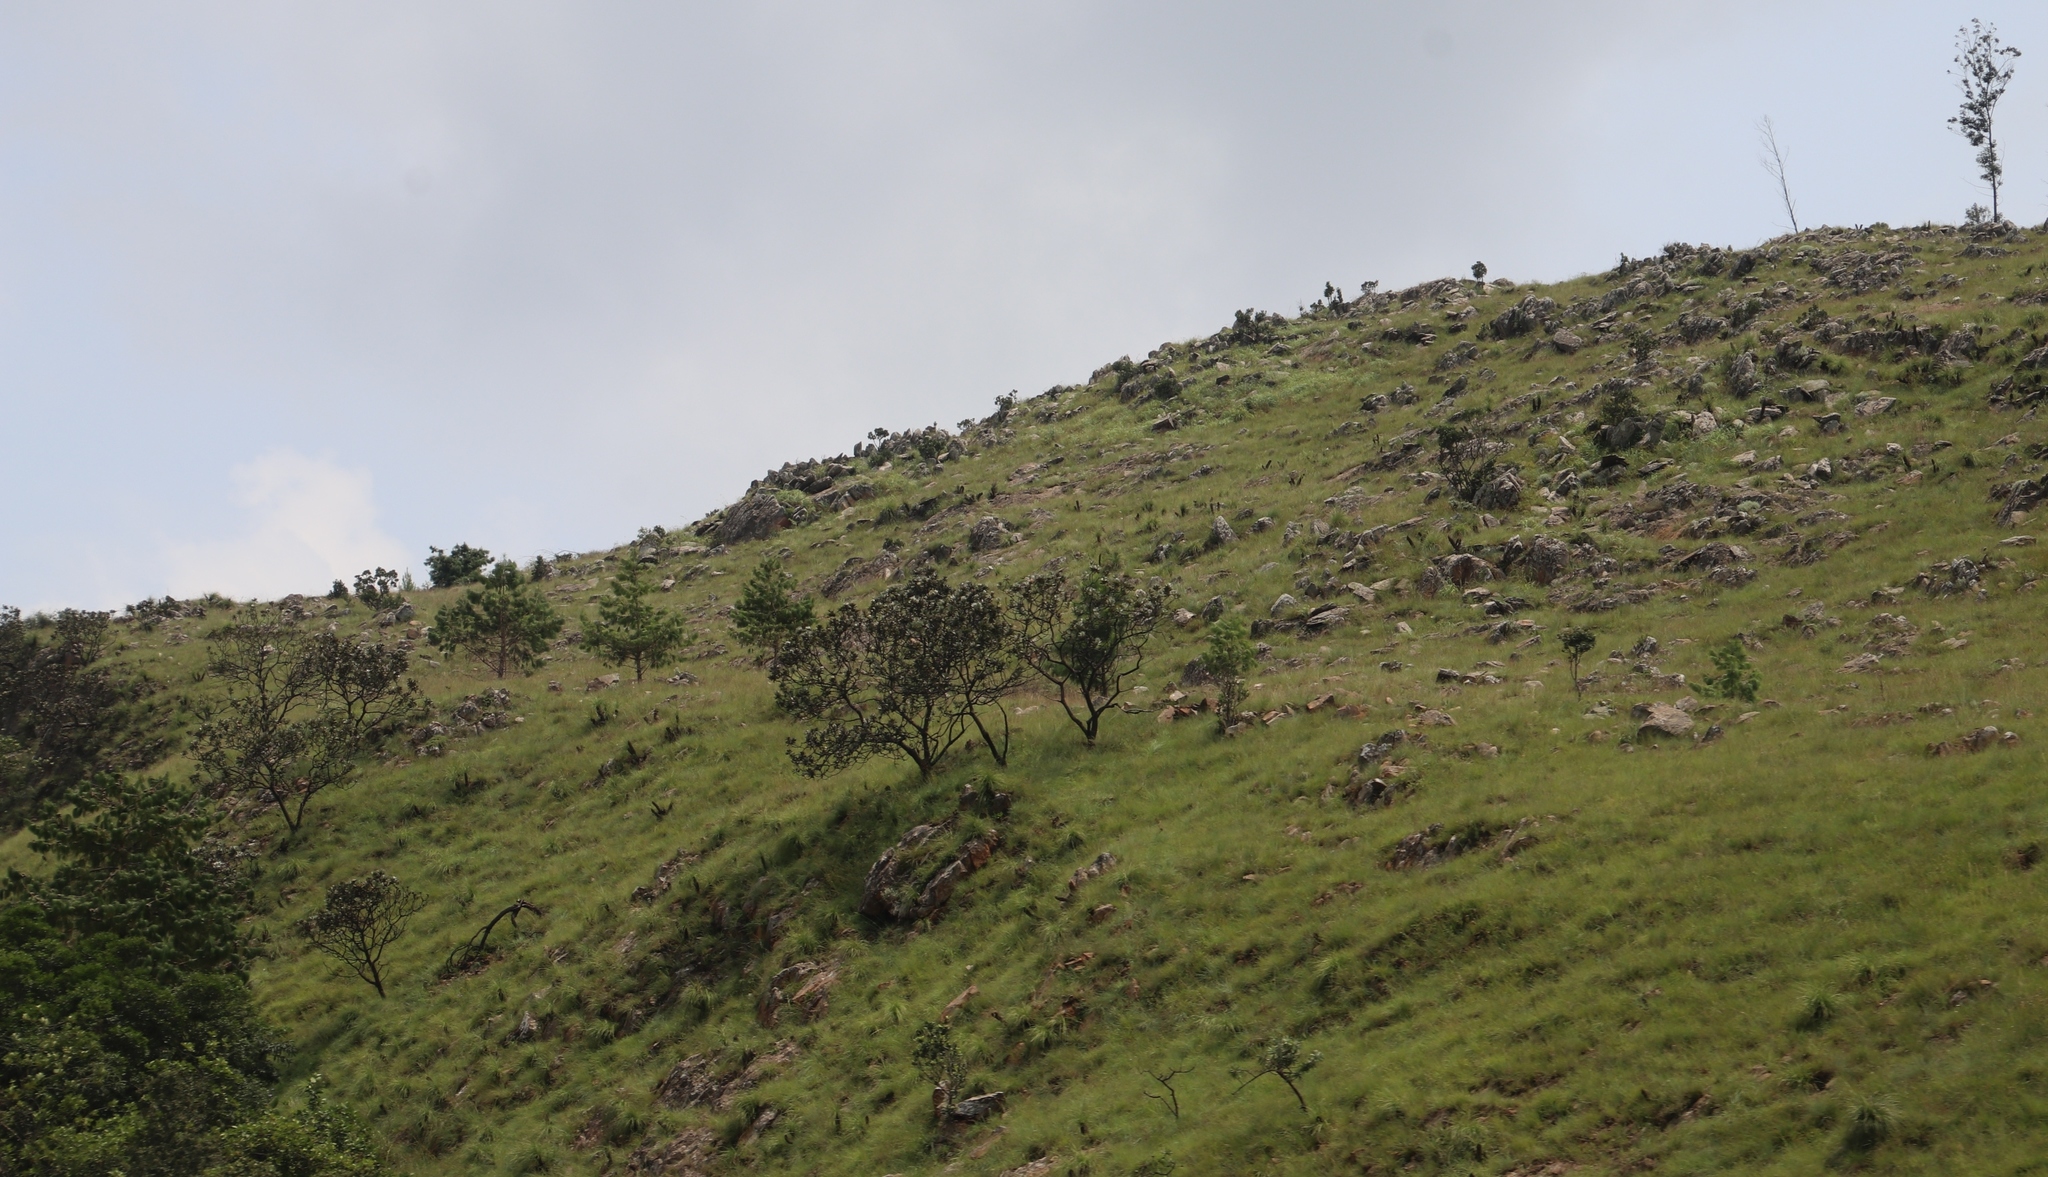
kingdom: Plantae
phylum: Tracheophyta
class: Magnoliopsida
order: Proteales
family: Proteaceae
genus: Protea
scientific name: Protea roupelliae
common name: Silver sugarbush
